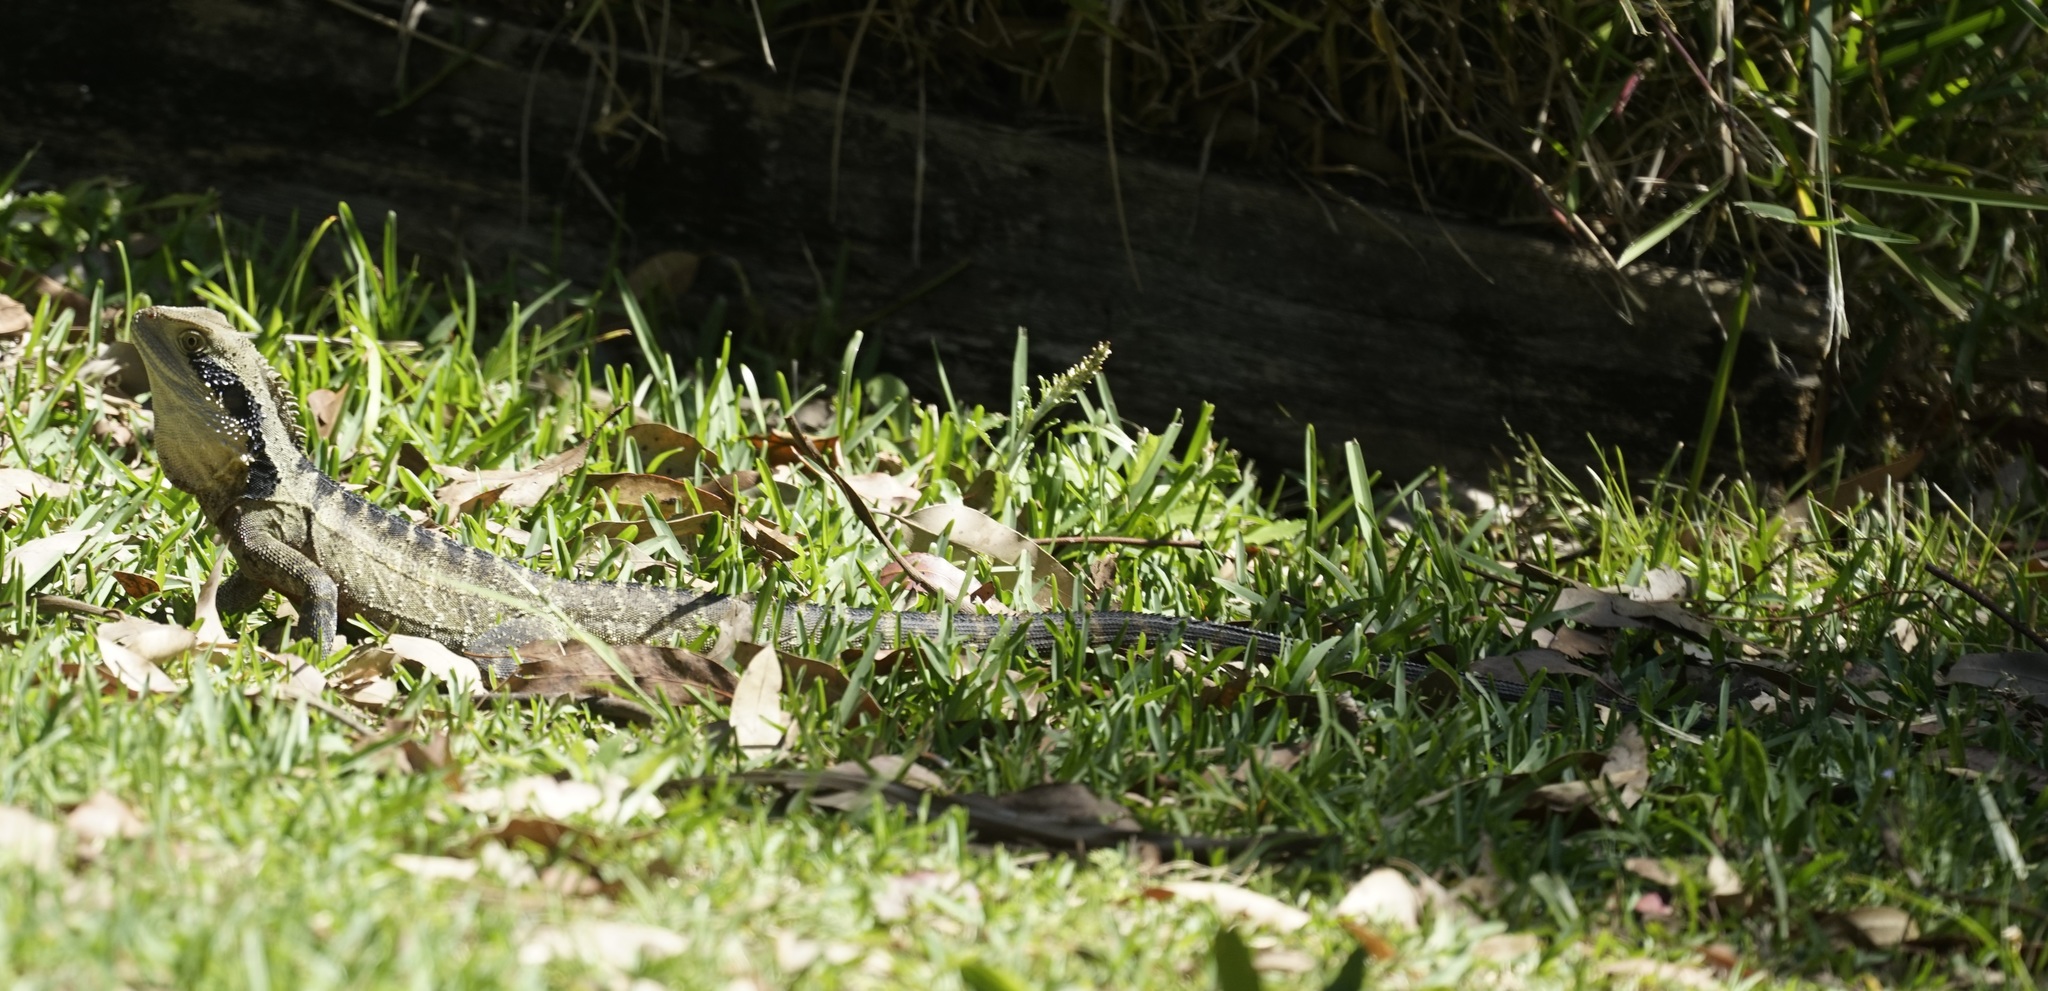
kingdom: Animalia
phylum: Chordata
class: Squamata
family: Agamidae
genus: Intellagama
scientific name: Intellagama lesueurii
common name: Eastern water dragon
